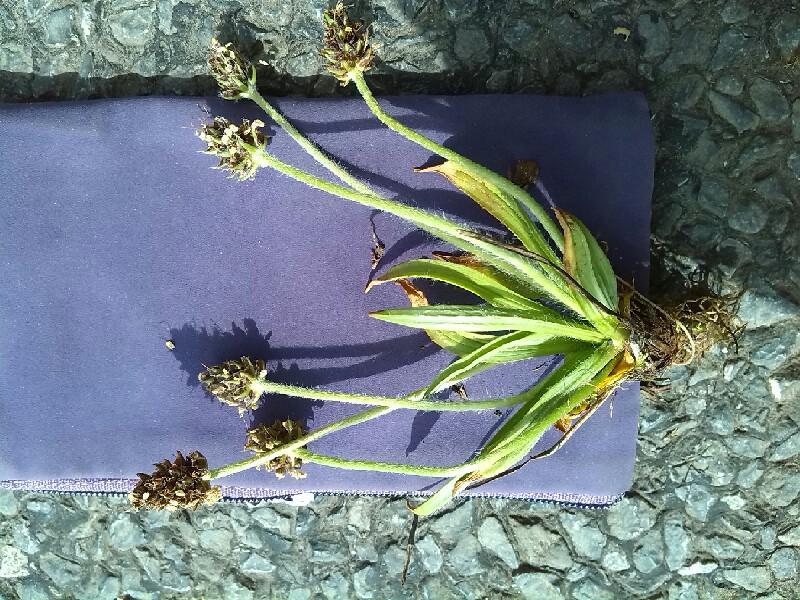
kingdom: Plantae
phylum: Tracheophyta
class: Magnoliopsida
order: Lamiales
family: Plantaginaceae
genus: Plantago
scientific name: Plantago atrata
